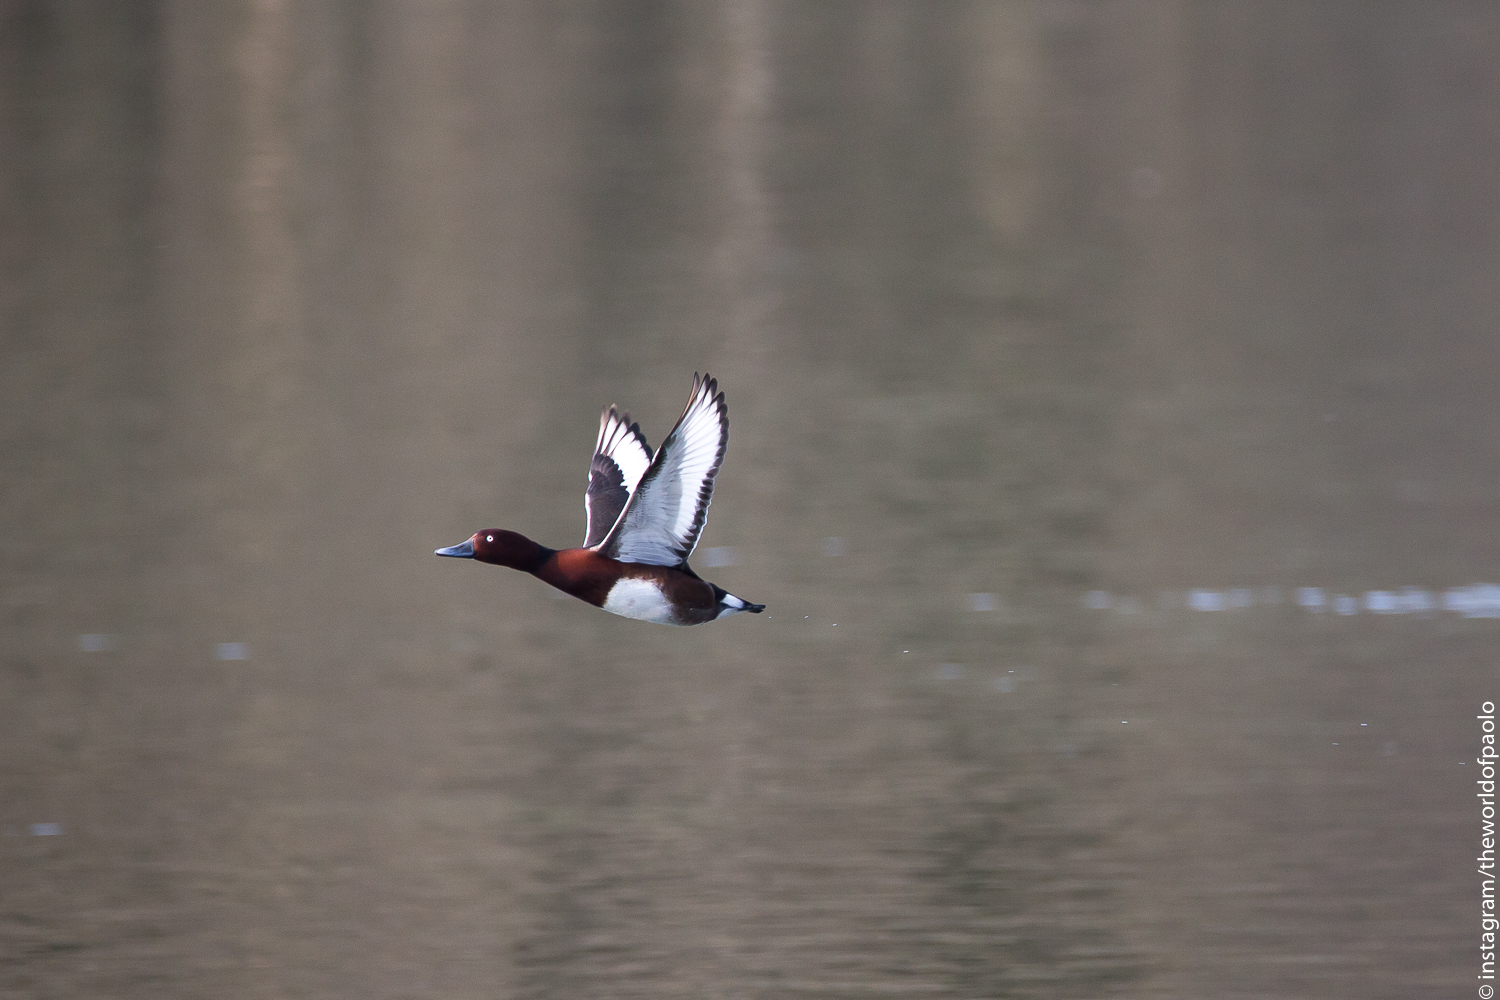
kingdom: Animalia
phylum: Chordata
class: Aves
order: Anseriformes
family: Anatidae
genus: Aythya
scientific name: Aythya nyroca
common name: Ferruginous duck
